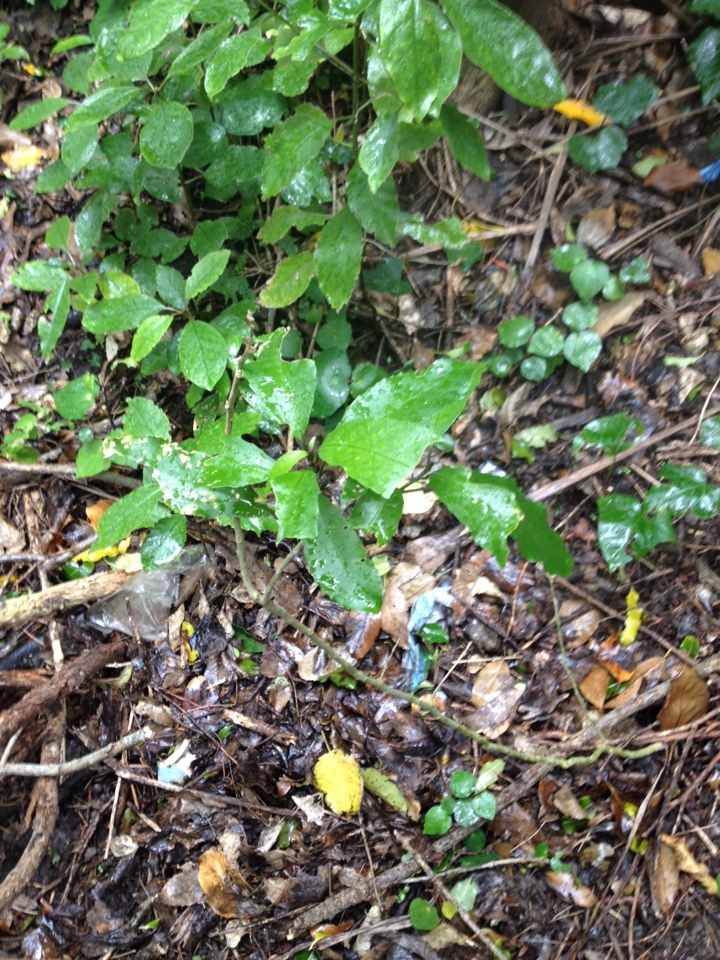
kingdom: Plantae
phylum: Tracheophyta
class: Magnoliopsida
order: Malpighiales
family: Violaceae
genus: Melicytus
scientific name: Melicytus ramiflorus
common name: Mahoe
